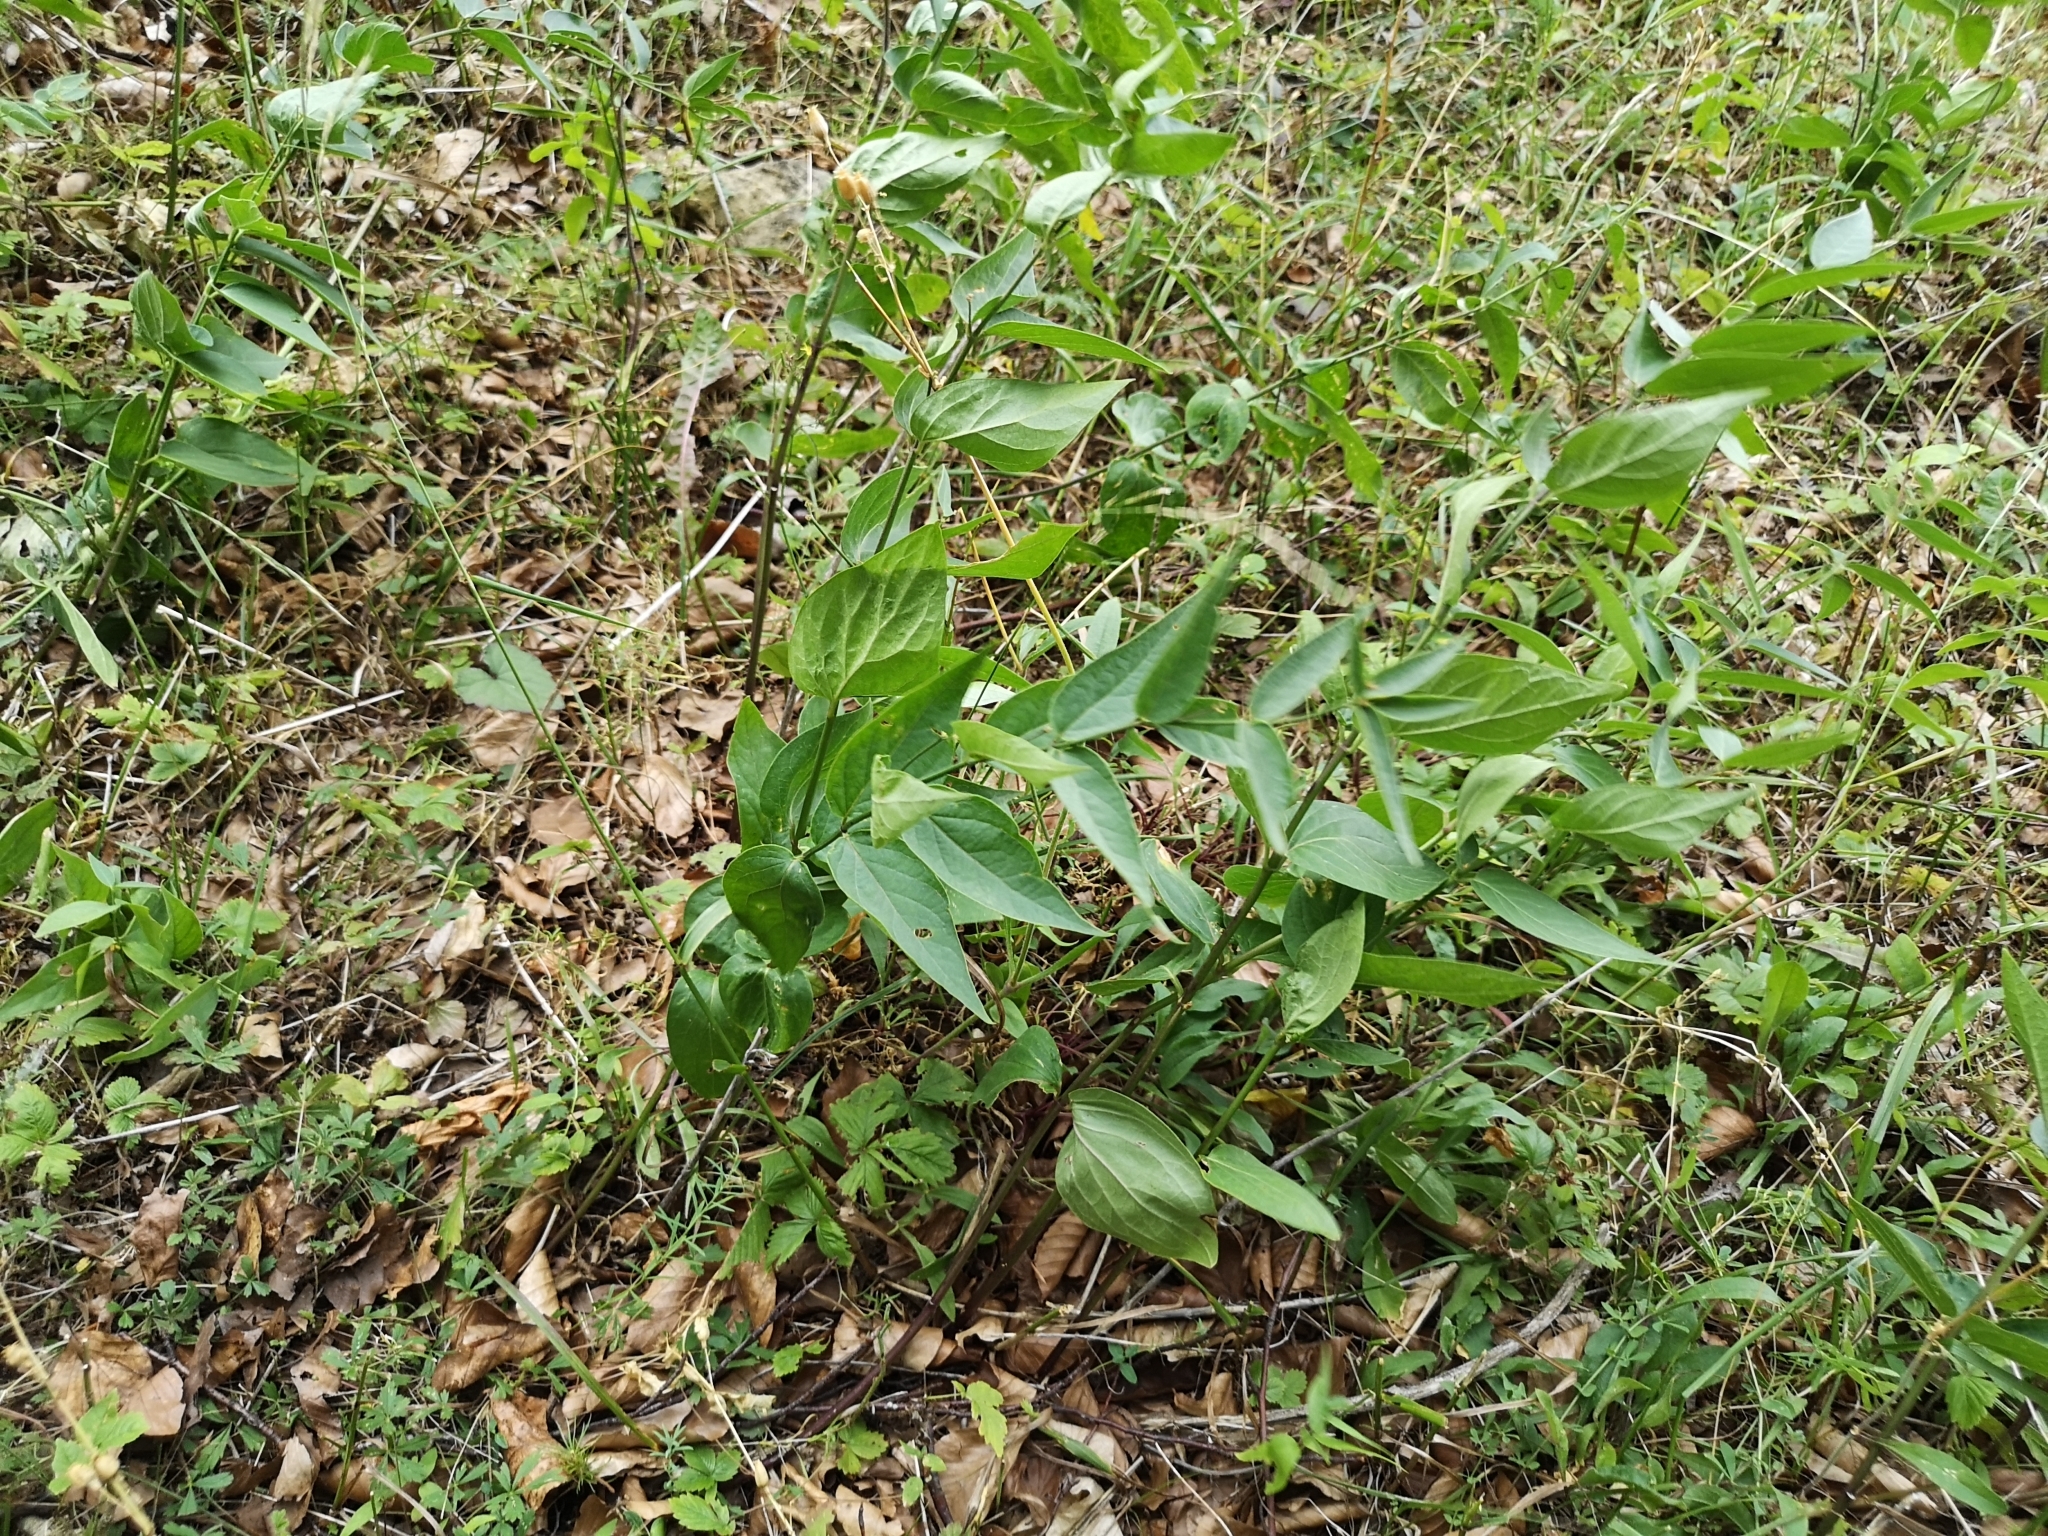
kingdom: Plantae
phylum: Tracheophyta
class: Magnoliopsida
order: Gentianales
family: Apocynaceae
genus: Vincetoxicum
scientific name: Vincetoxicum hirundinaria
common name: White swallowwort
